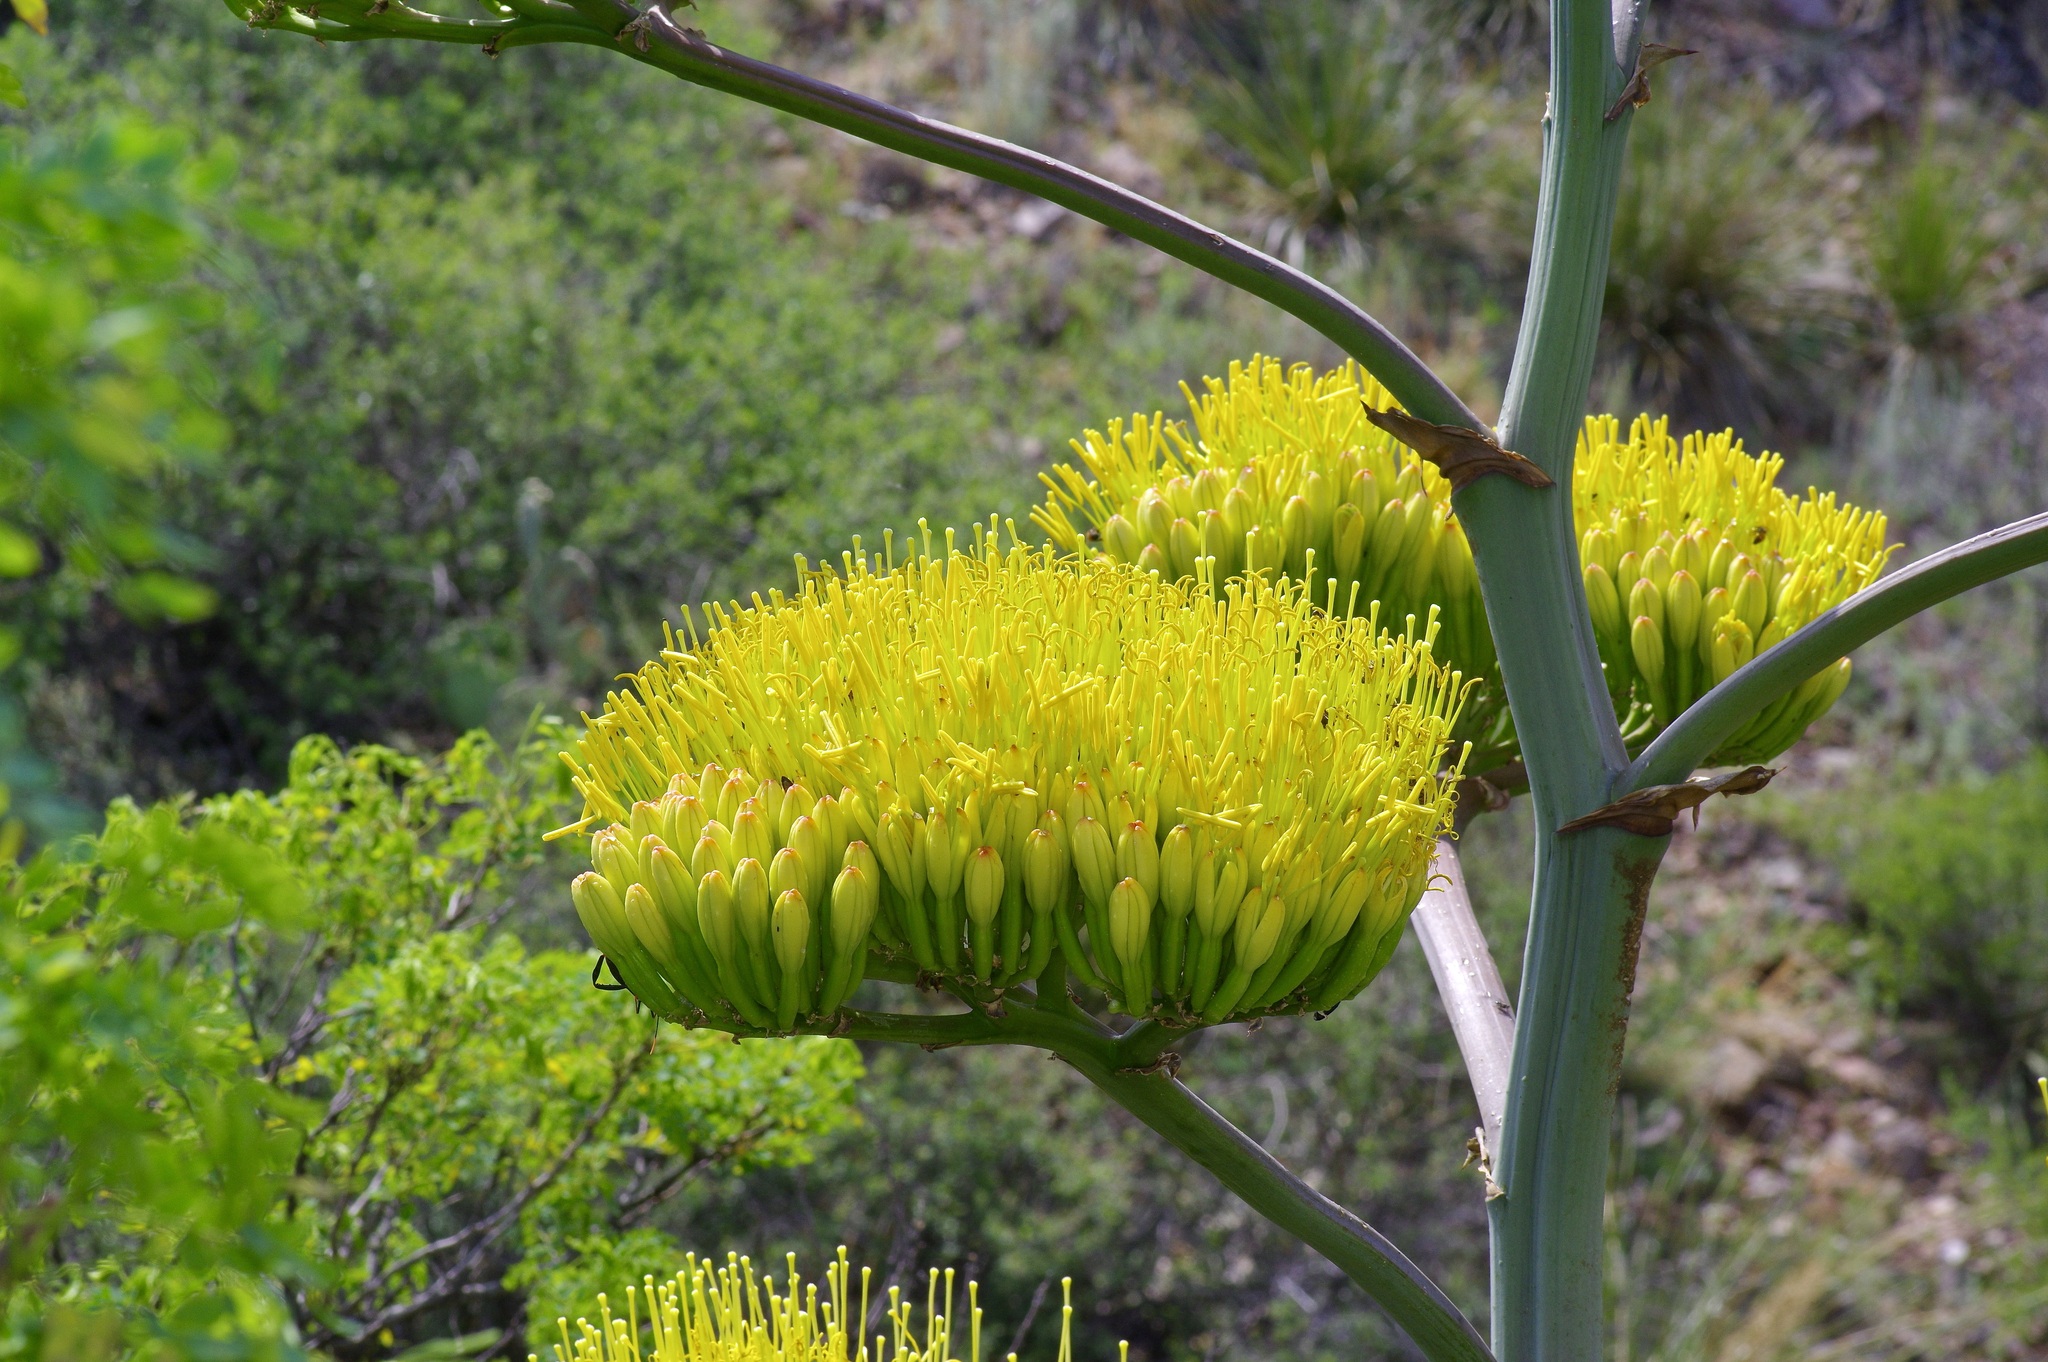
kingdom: Plantae
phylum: Tracheophyta
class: Liliopsida
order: Asparagales
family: Asparagaceae
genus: Agave
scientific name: Agave havardiana
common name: Havard agave
